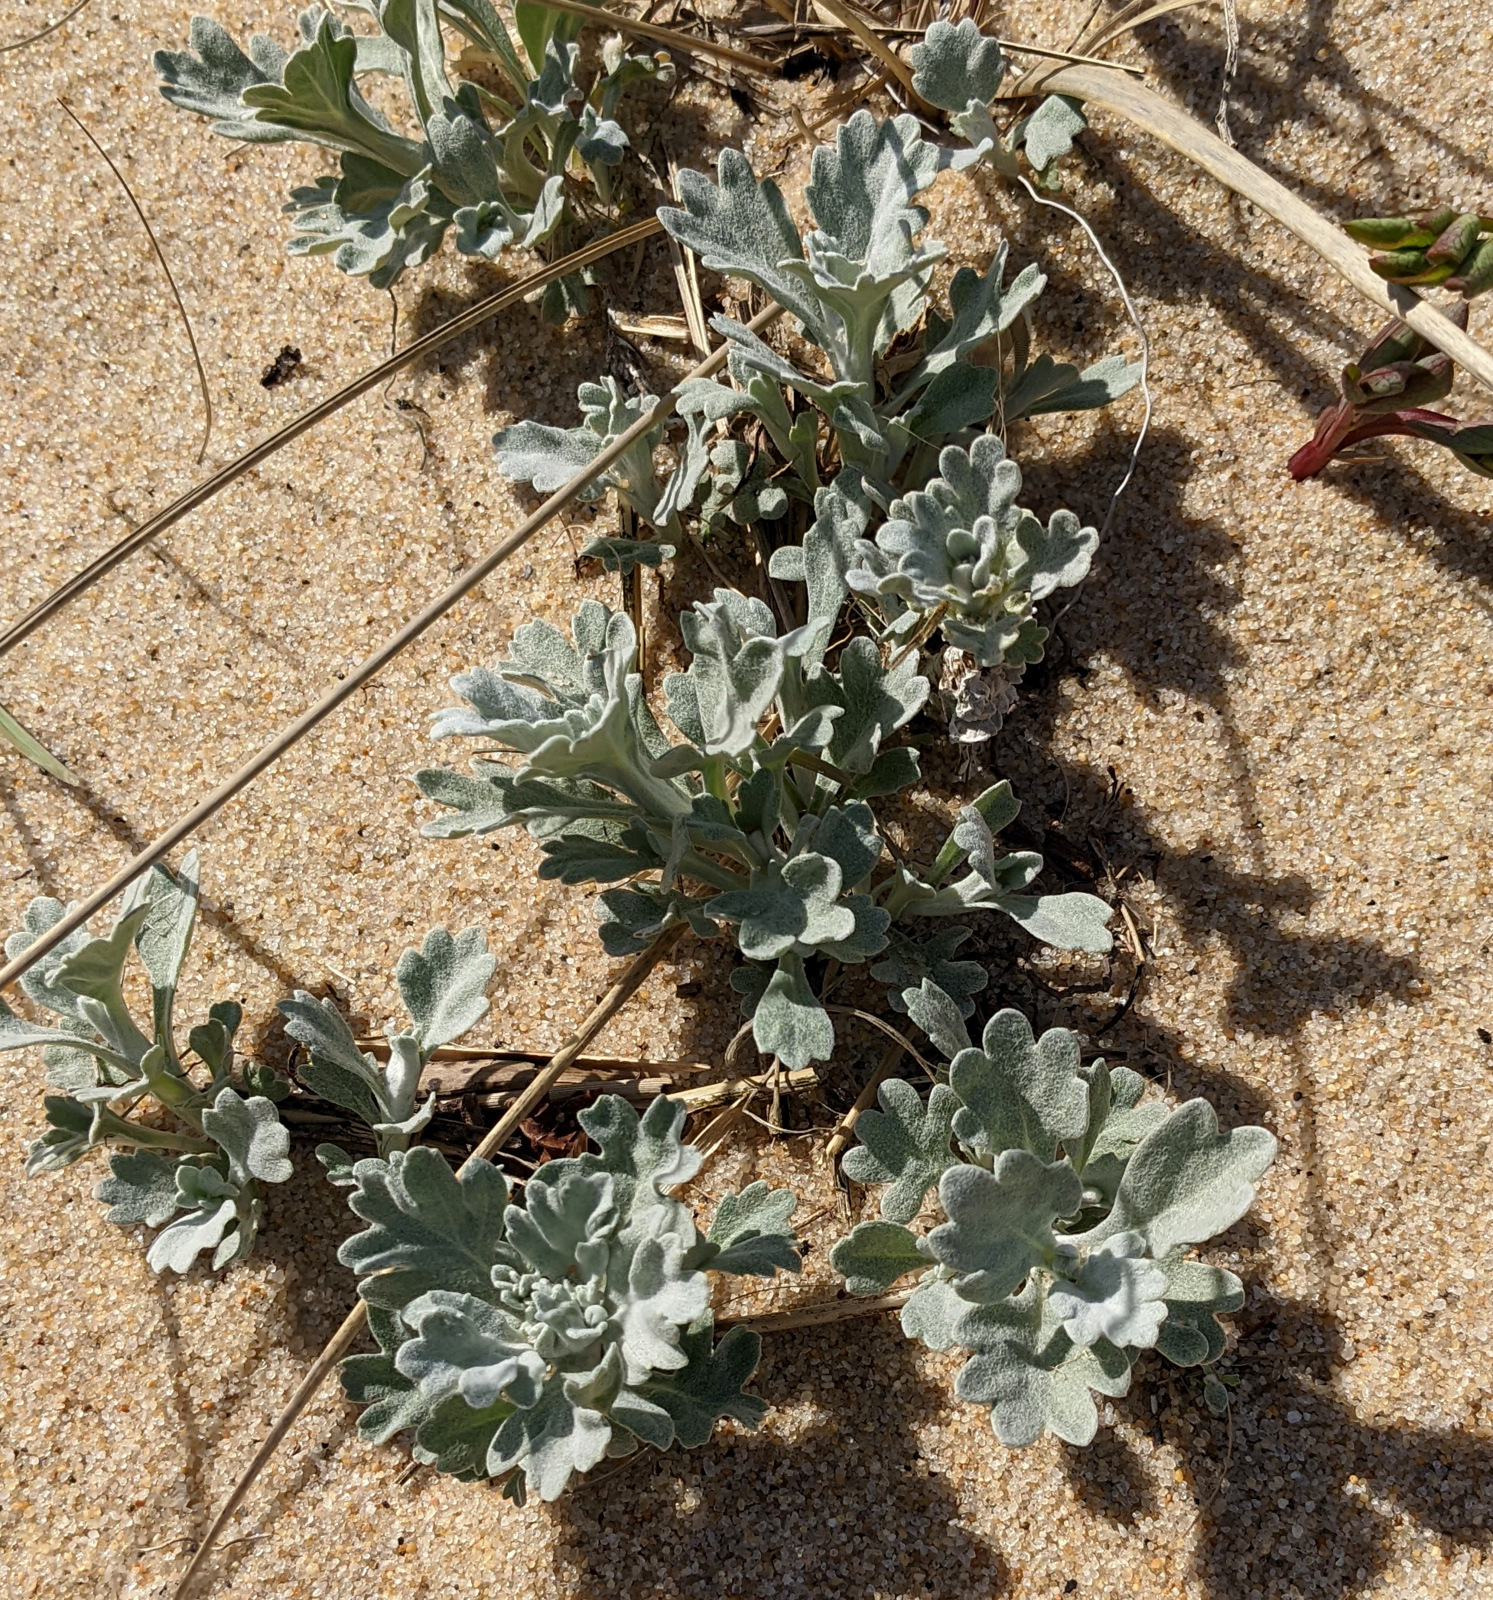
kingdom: Plantae
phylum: Tracheophyta
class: Magnoliopsida
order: Asterales
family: Asteraceae
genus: Artemisia
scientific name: Artemisia stelleriana
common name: Beach wormwood
